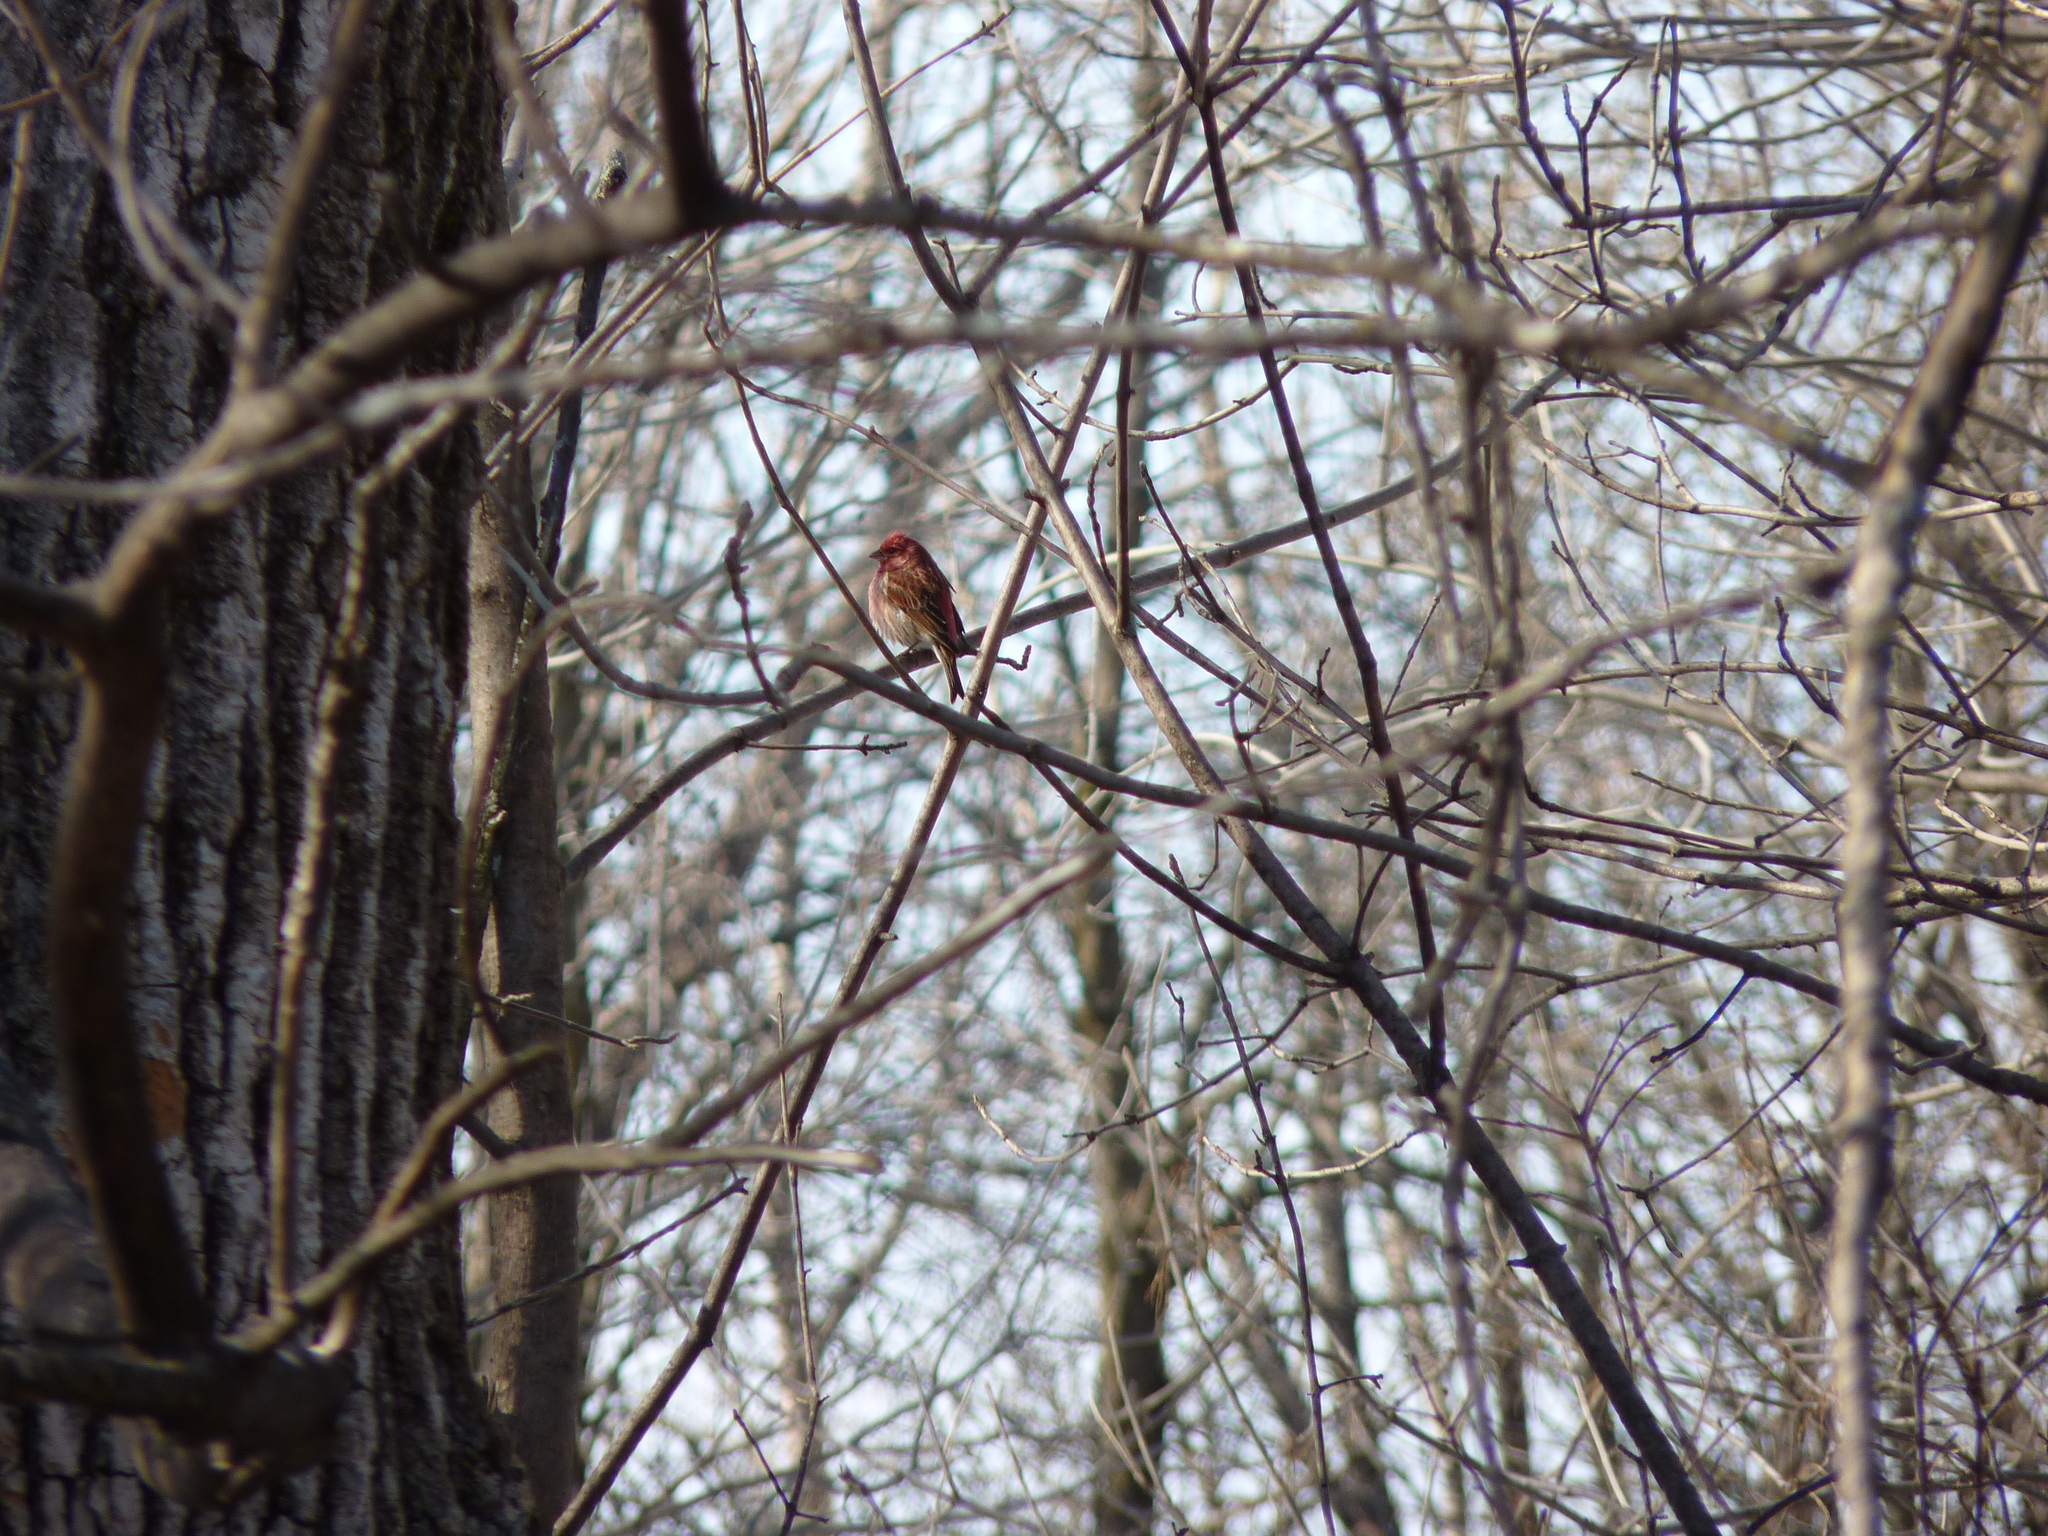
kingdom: Animalia
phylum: Chordata
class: Aves
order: Passeriformes
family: Fringillidae
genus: Haemorhous
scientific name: Haemorhous purpureus
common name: Purple finch
